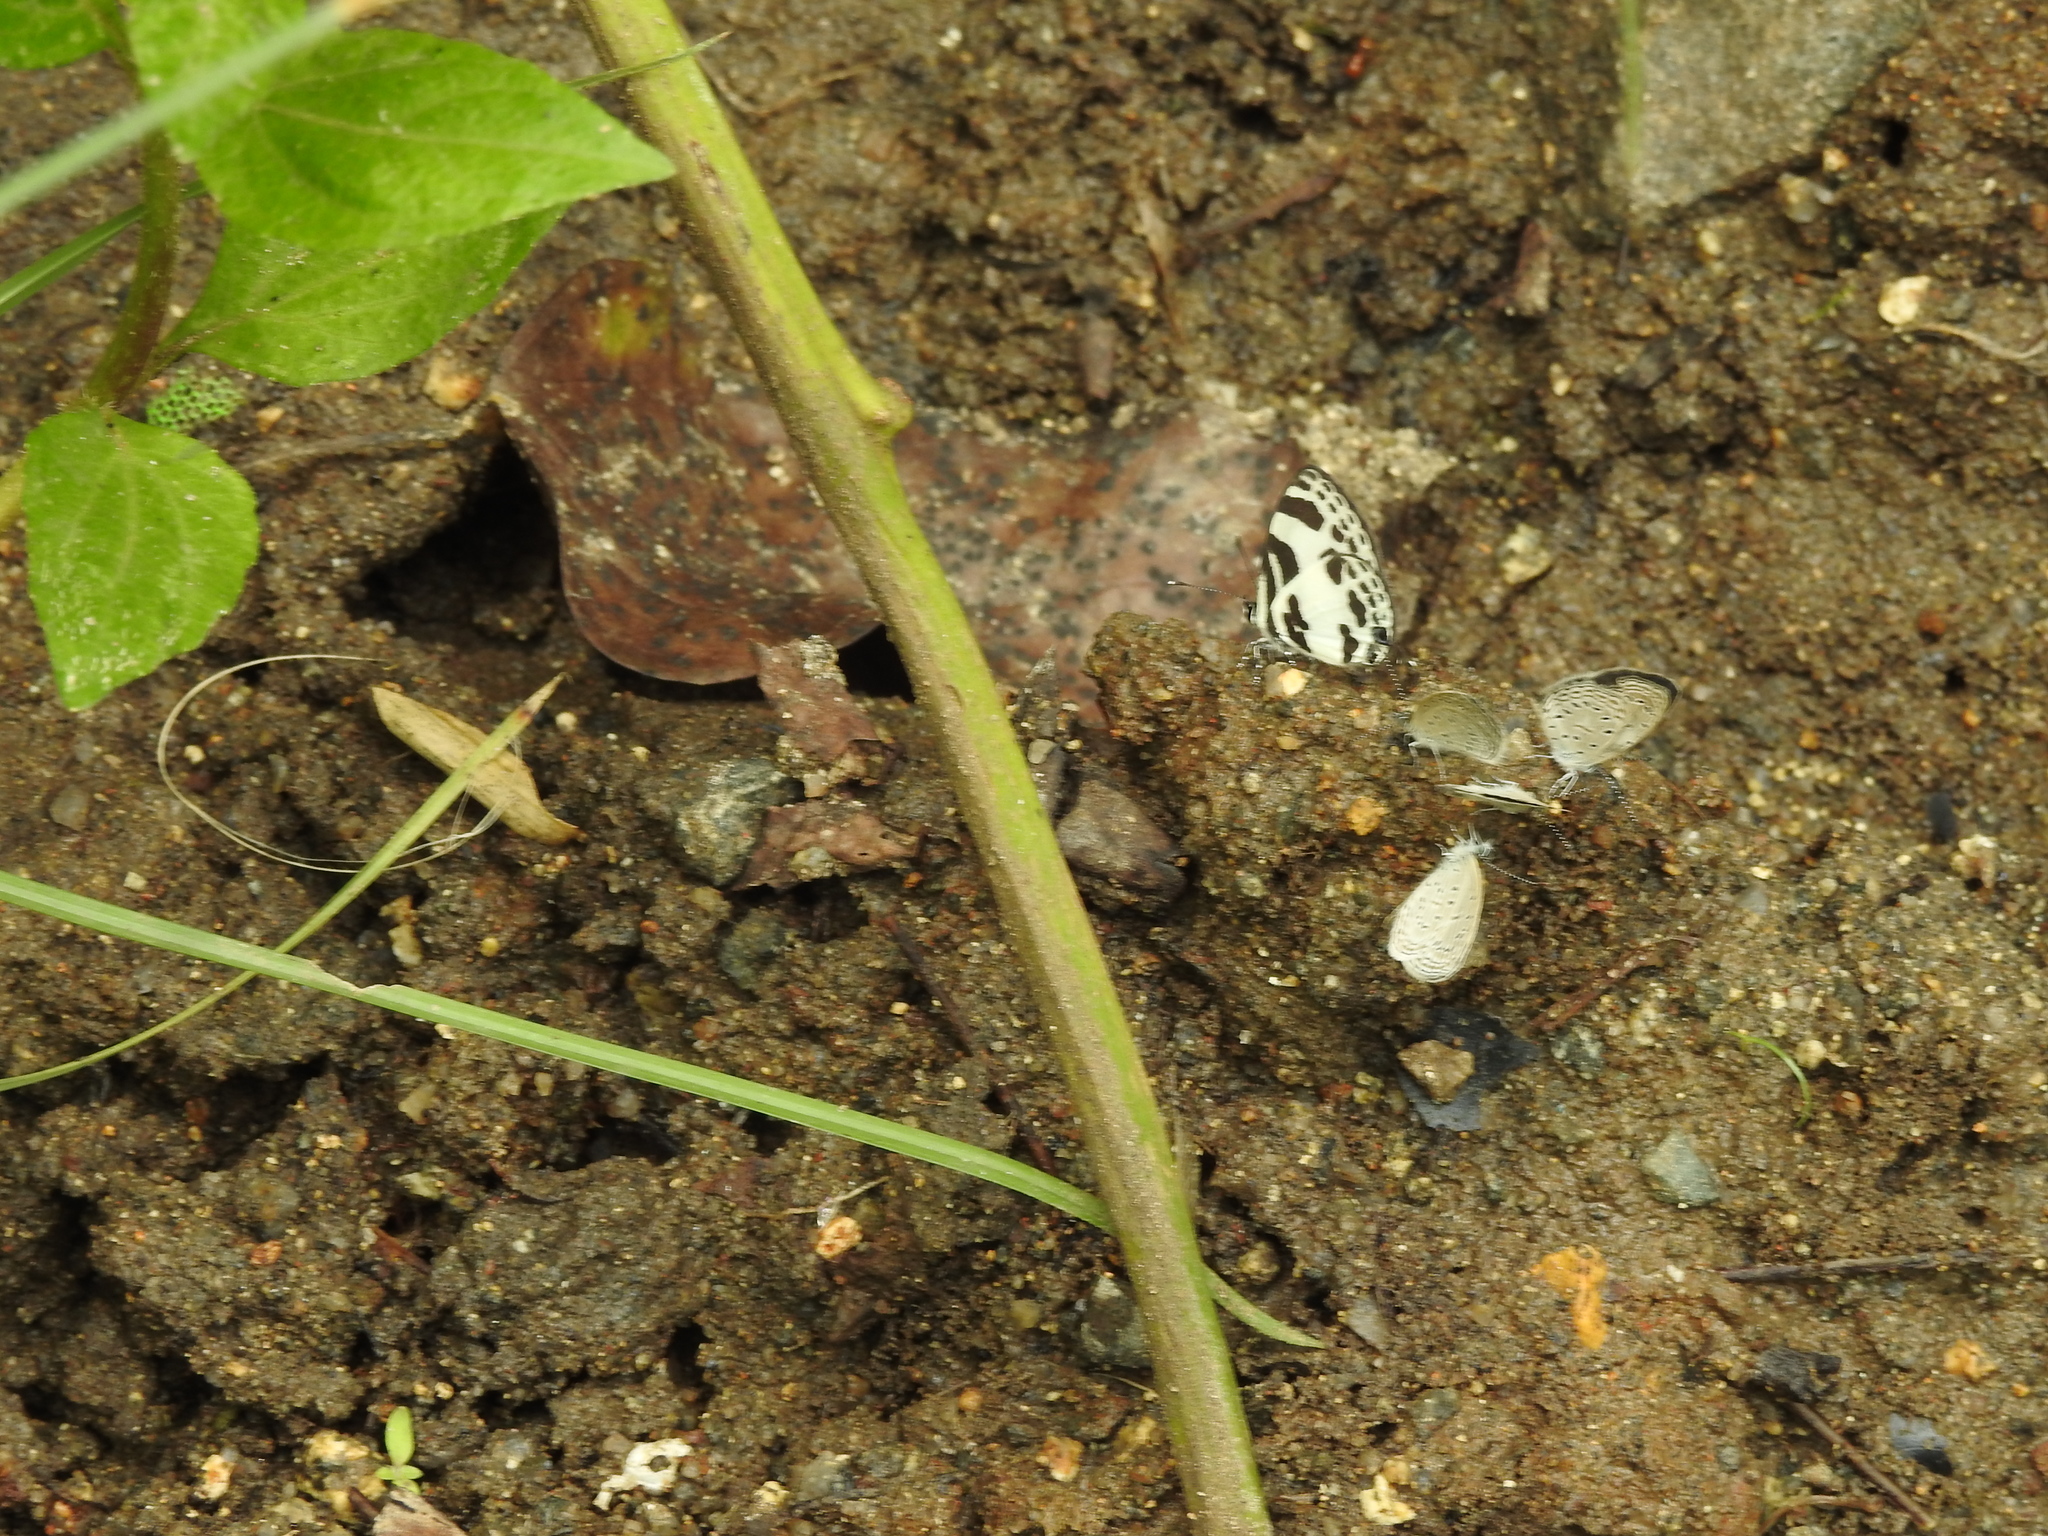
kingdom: Animalia
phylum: Arthropoda
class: Insecta
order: Lepidoptera
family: Lycaenidae
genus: Zizula
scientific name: Zizula hylax
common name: Gaika blue
